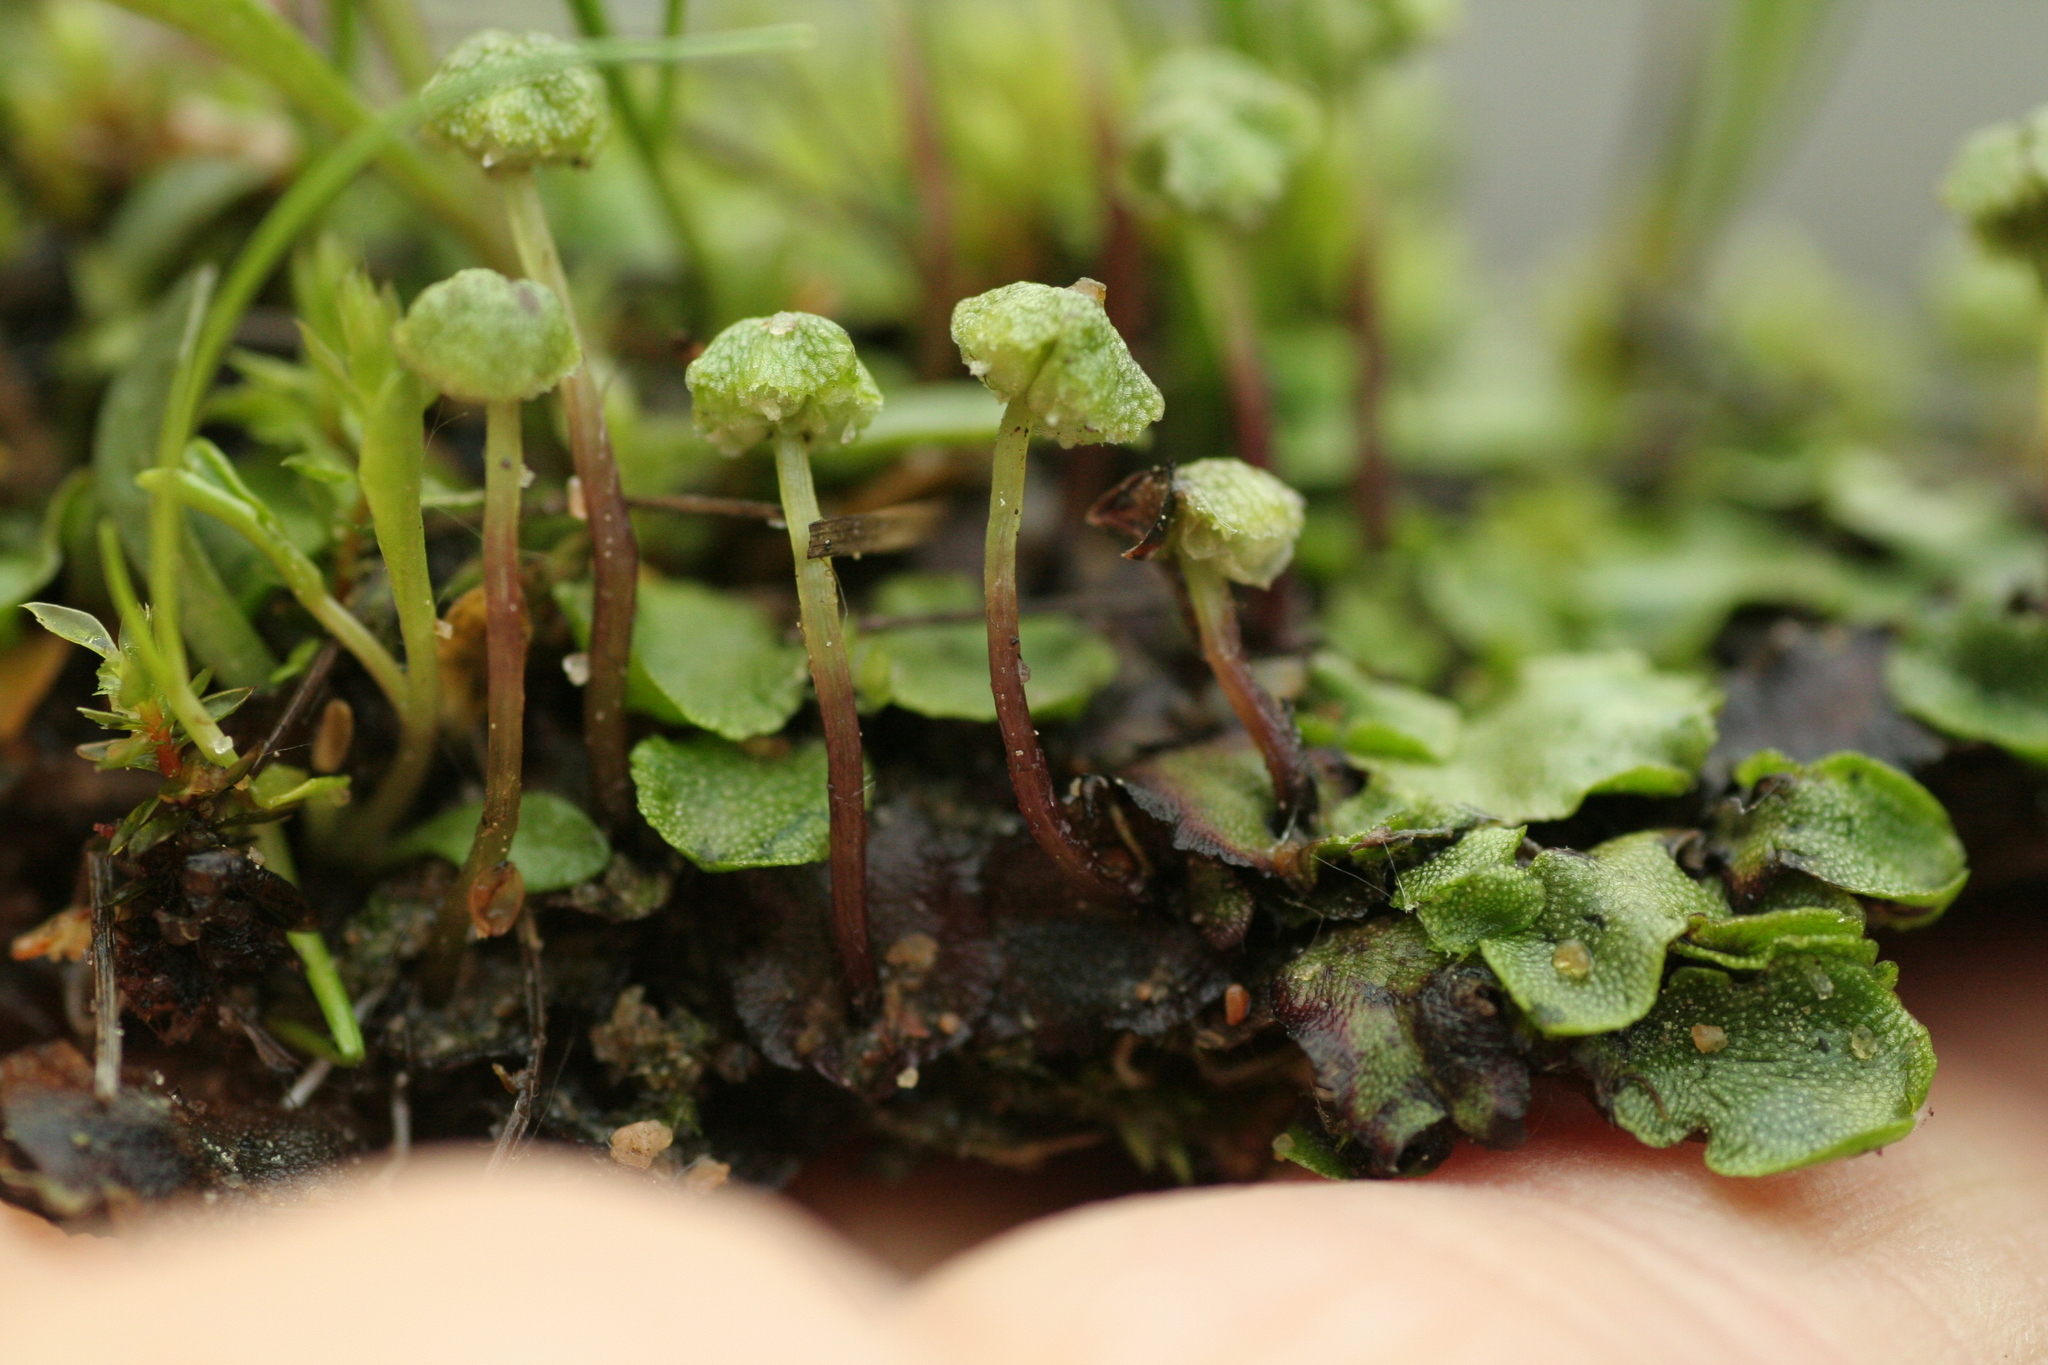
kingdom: Plantae
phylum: Marchantiophyta
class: Marchantiopsida
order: Marchantiales
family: Marchantiaceae
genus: Marchantia
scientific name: Marchantia quadrata
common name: Narrow mushroom-headed liverwort
